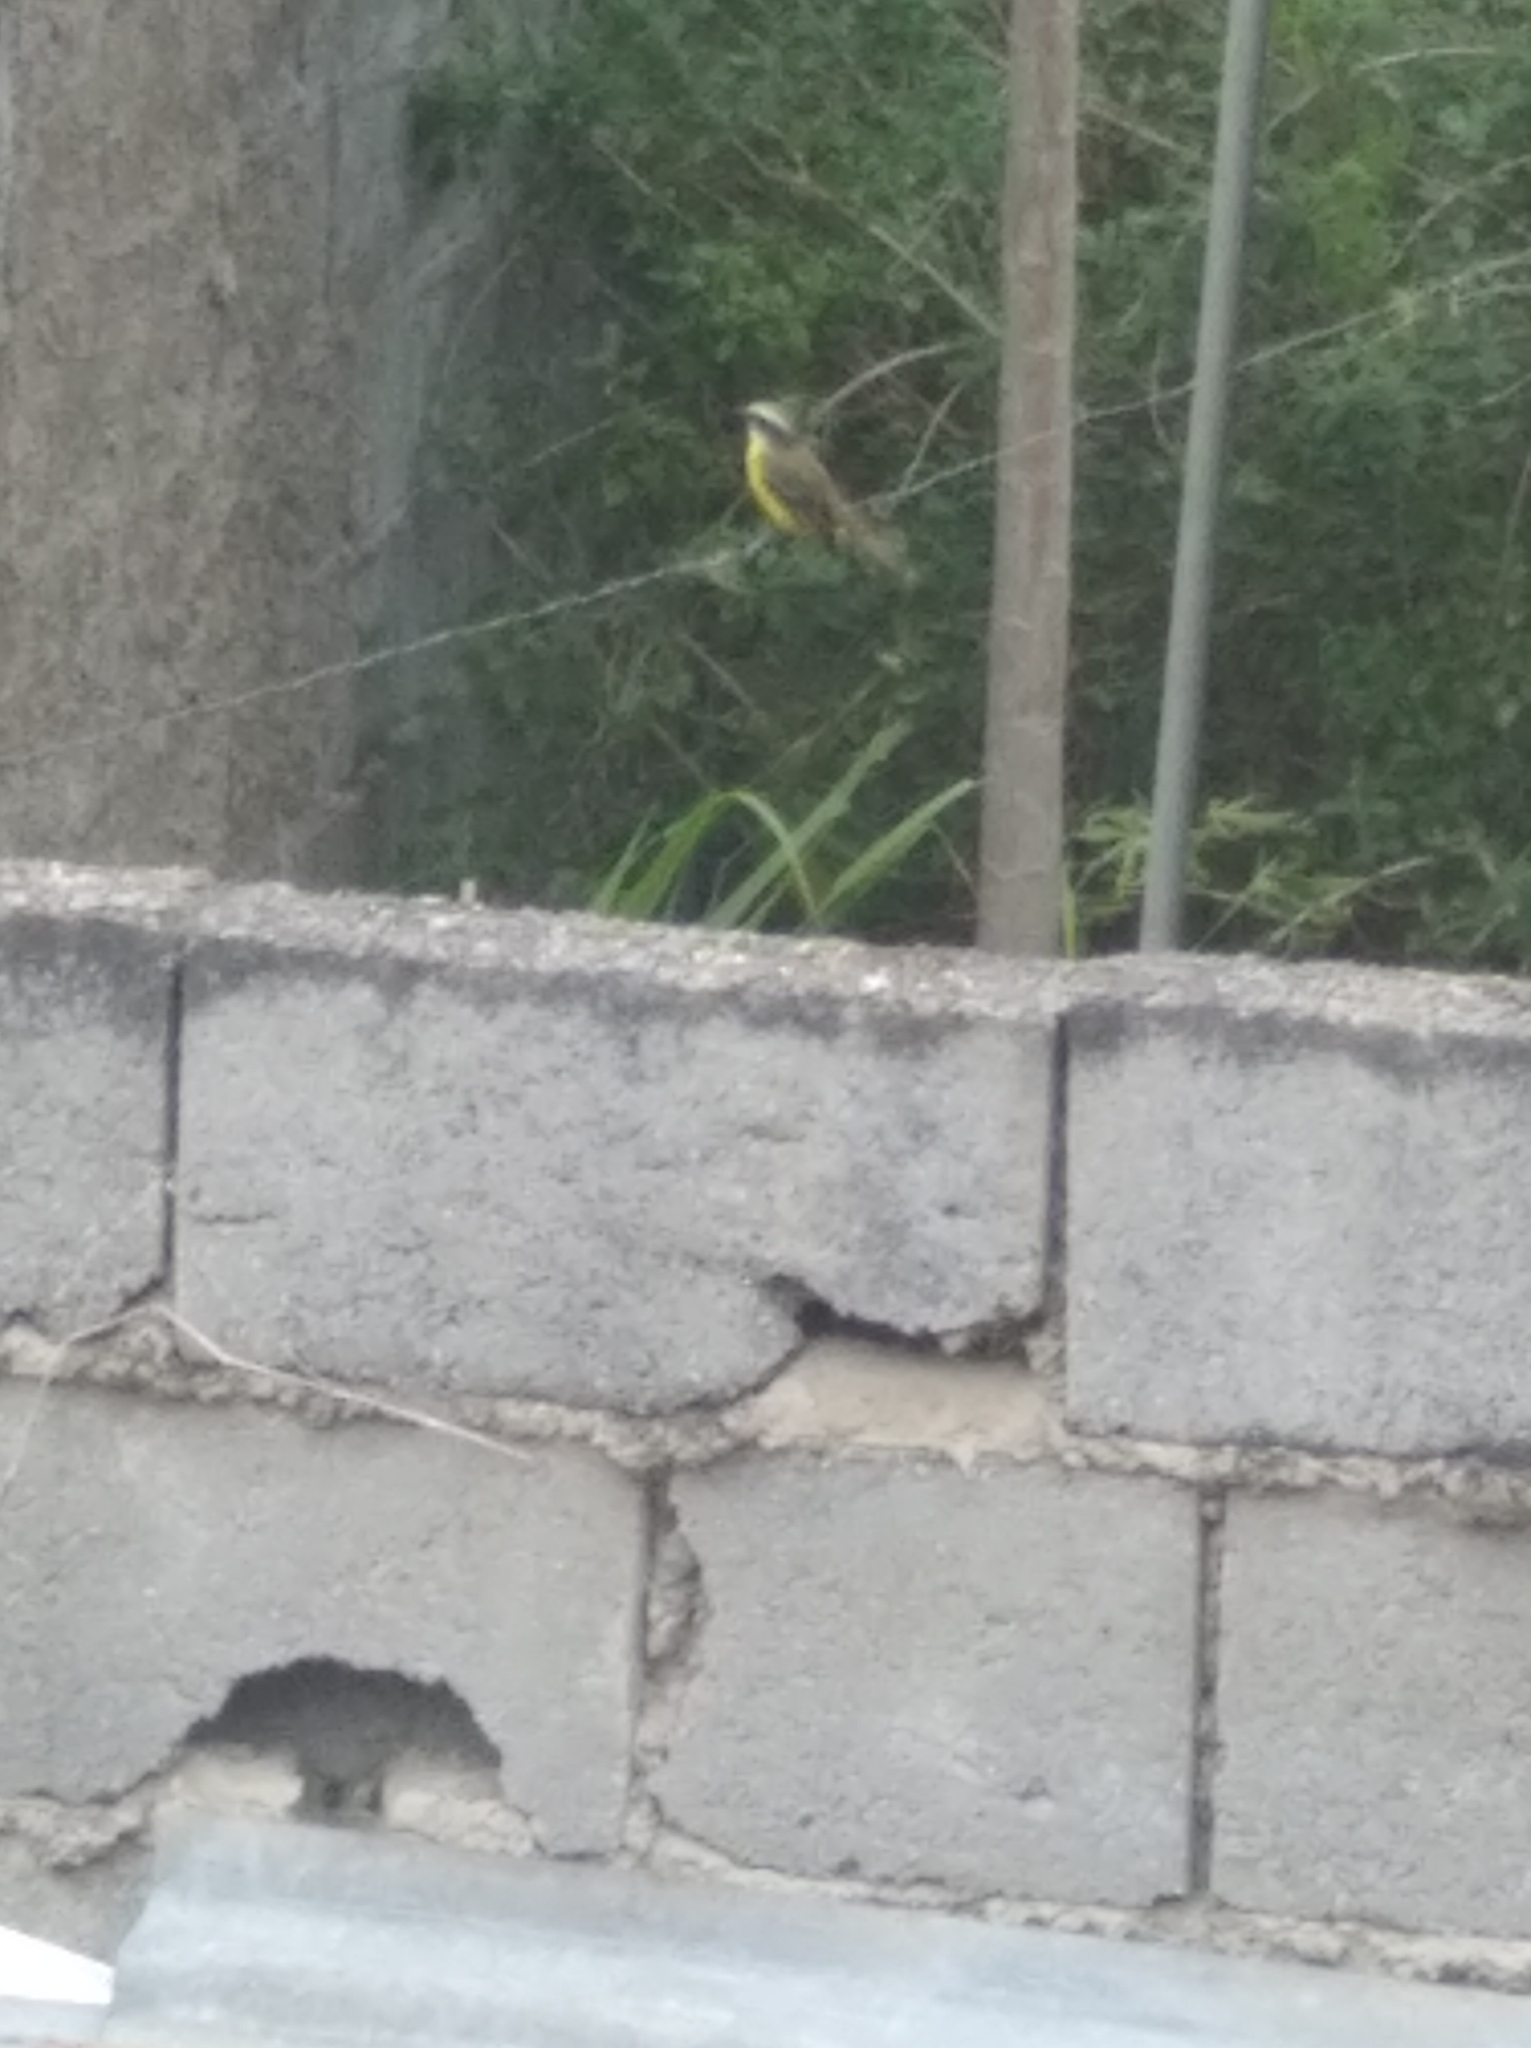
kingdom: Animalia
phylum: Chordata
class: Aves
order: Passeriformes
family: Tyrannidae
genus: Myiozetetes
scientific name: Myiozetetes similis
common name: Social flycatcher
